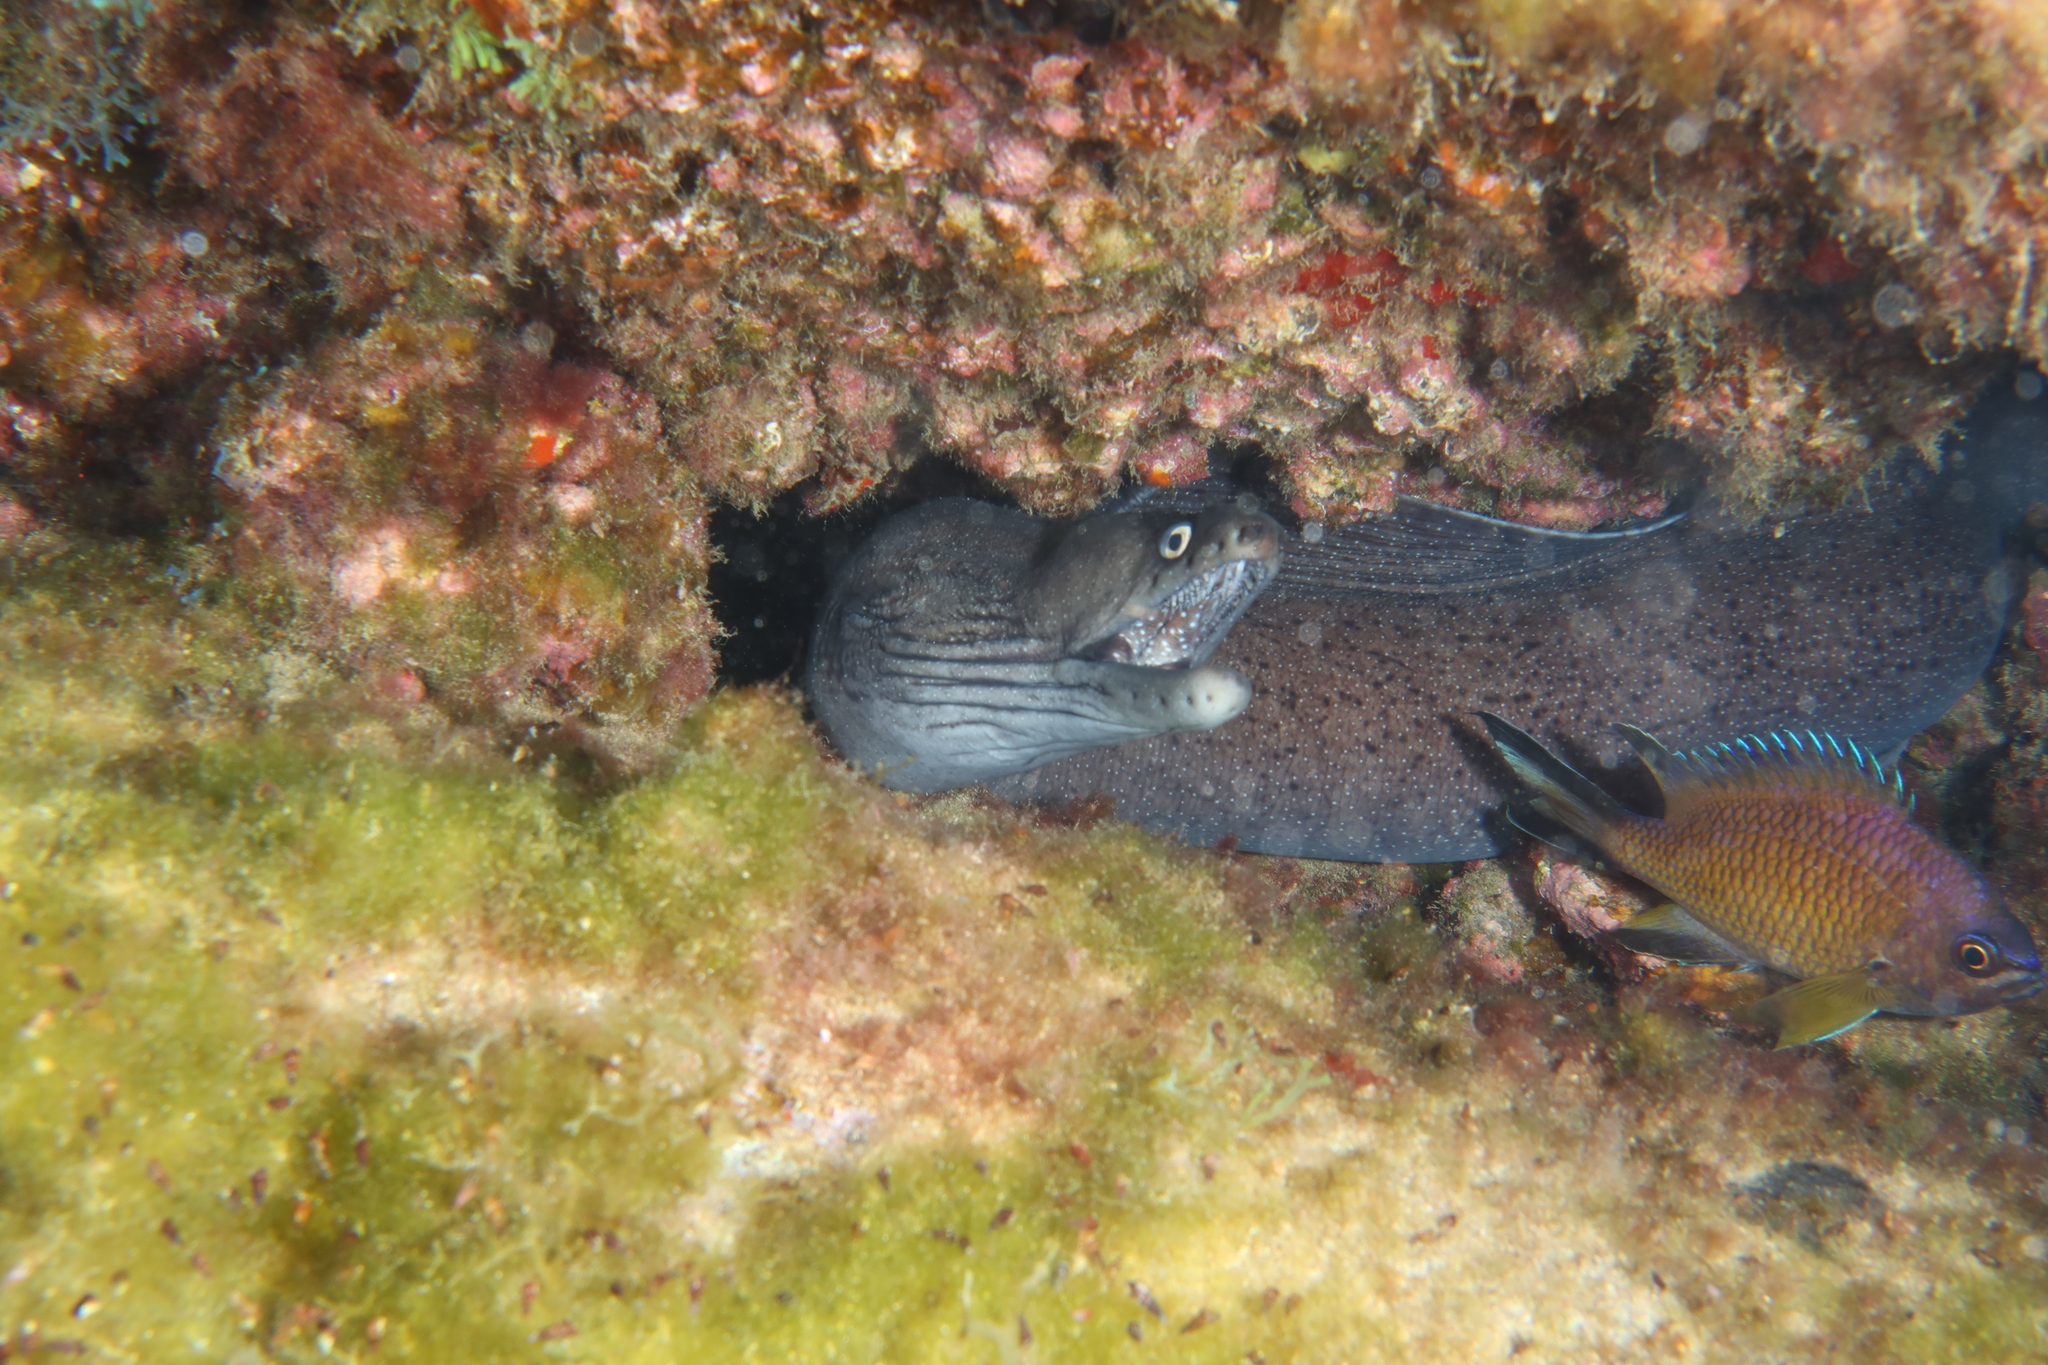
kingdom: Animalia
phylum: Chordata
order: Anguilliformes
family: Muraenidae
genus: Muraena
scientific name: Muraena augusti
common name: Mediterranean moray
